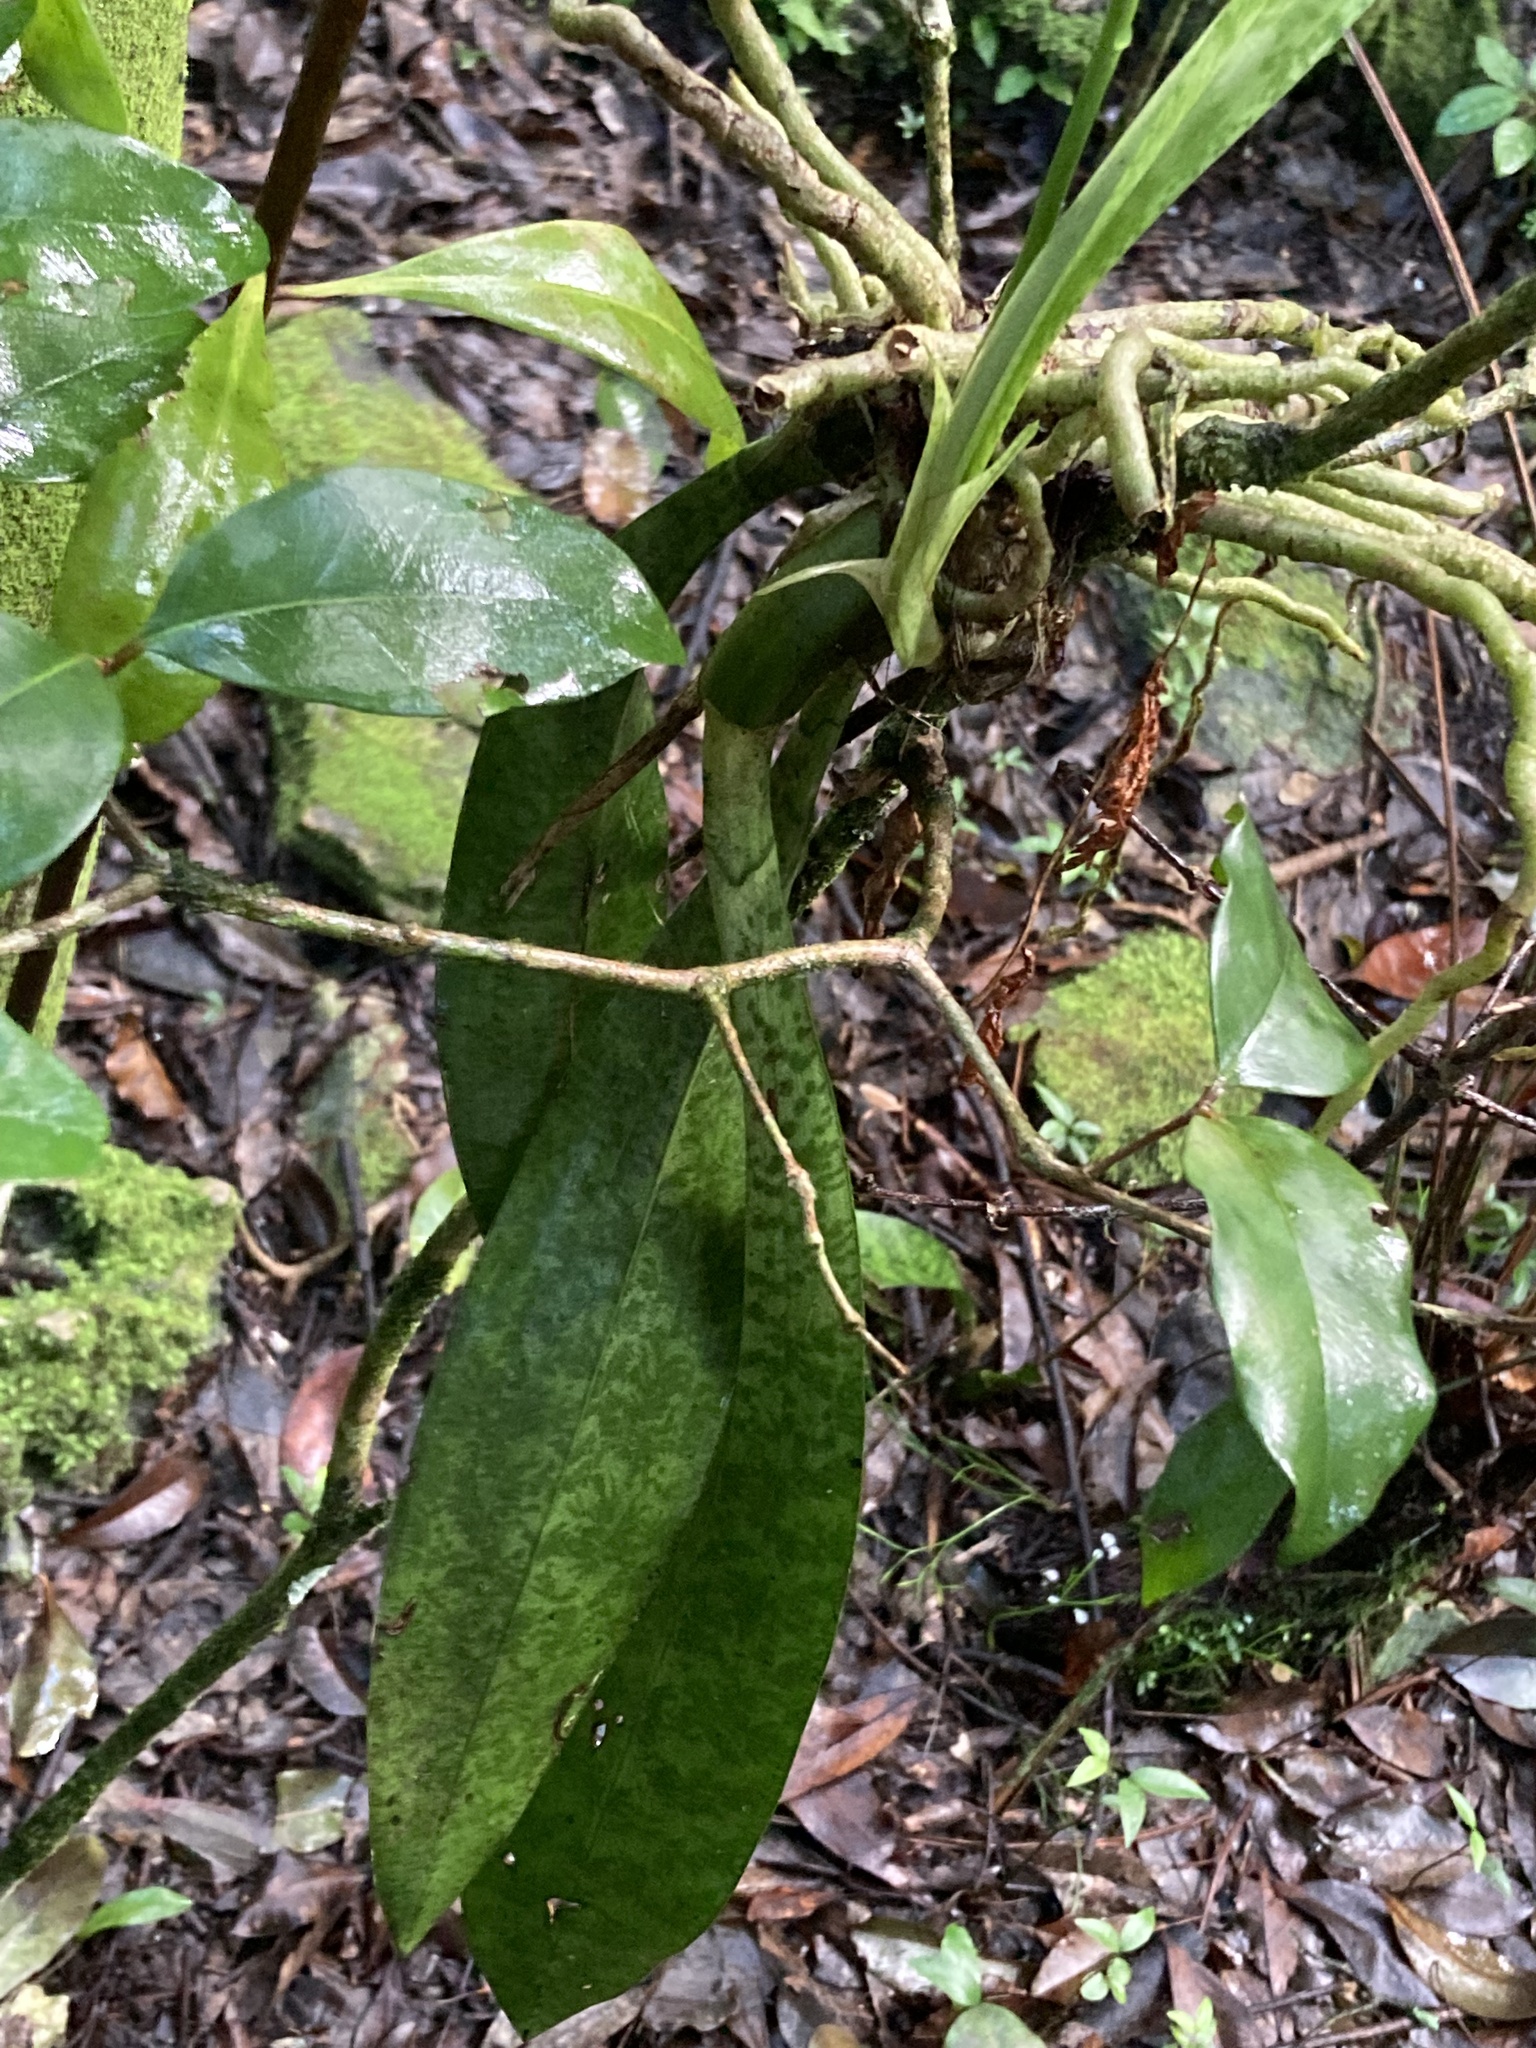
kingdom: Plantae
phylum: Tracheophyta
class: Liliopsida
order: Asparagales
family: Orchidaceae
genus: Eulophia
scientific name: Eulophia maculata
